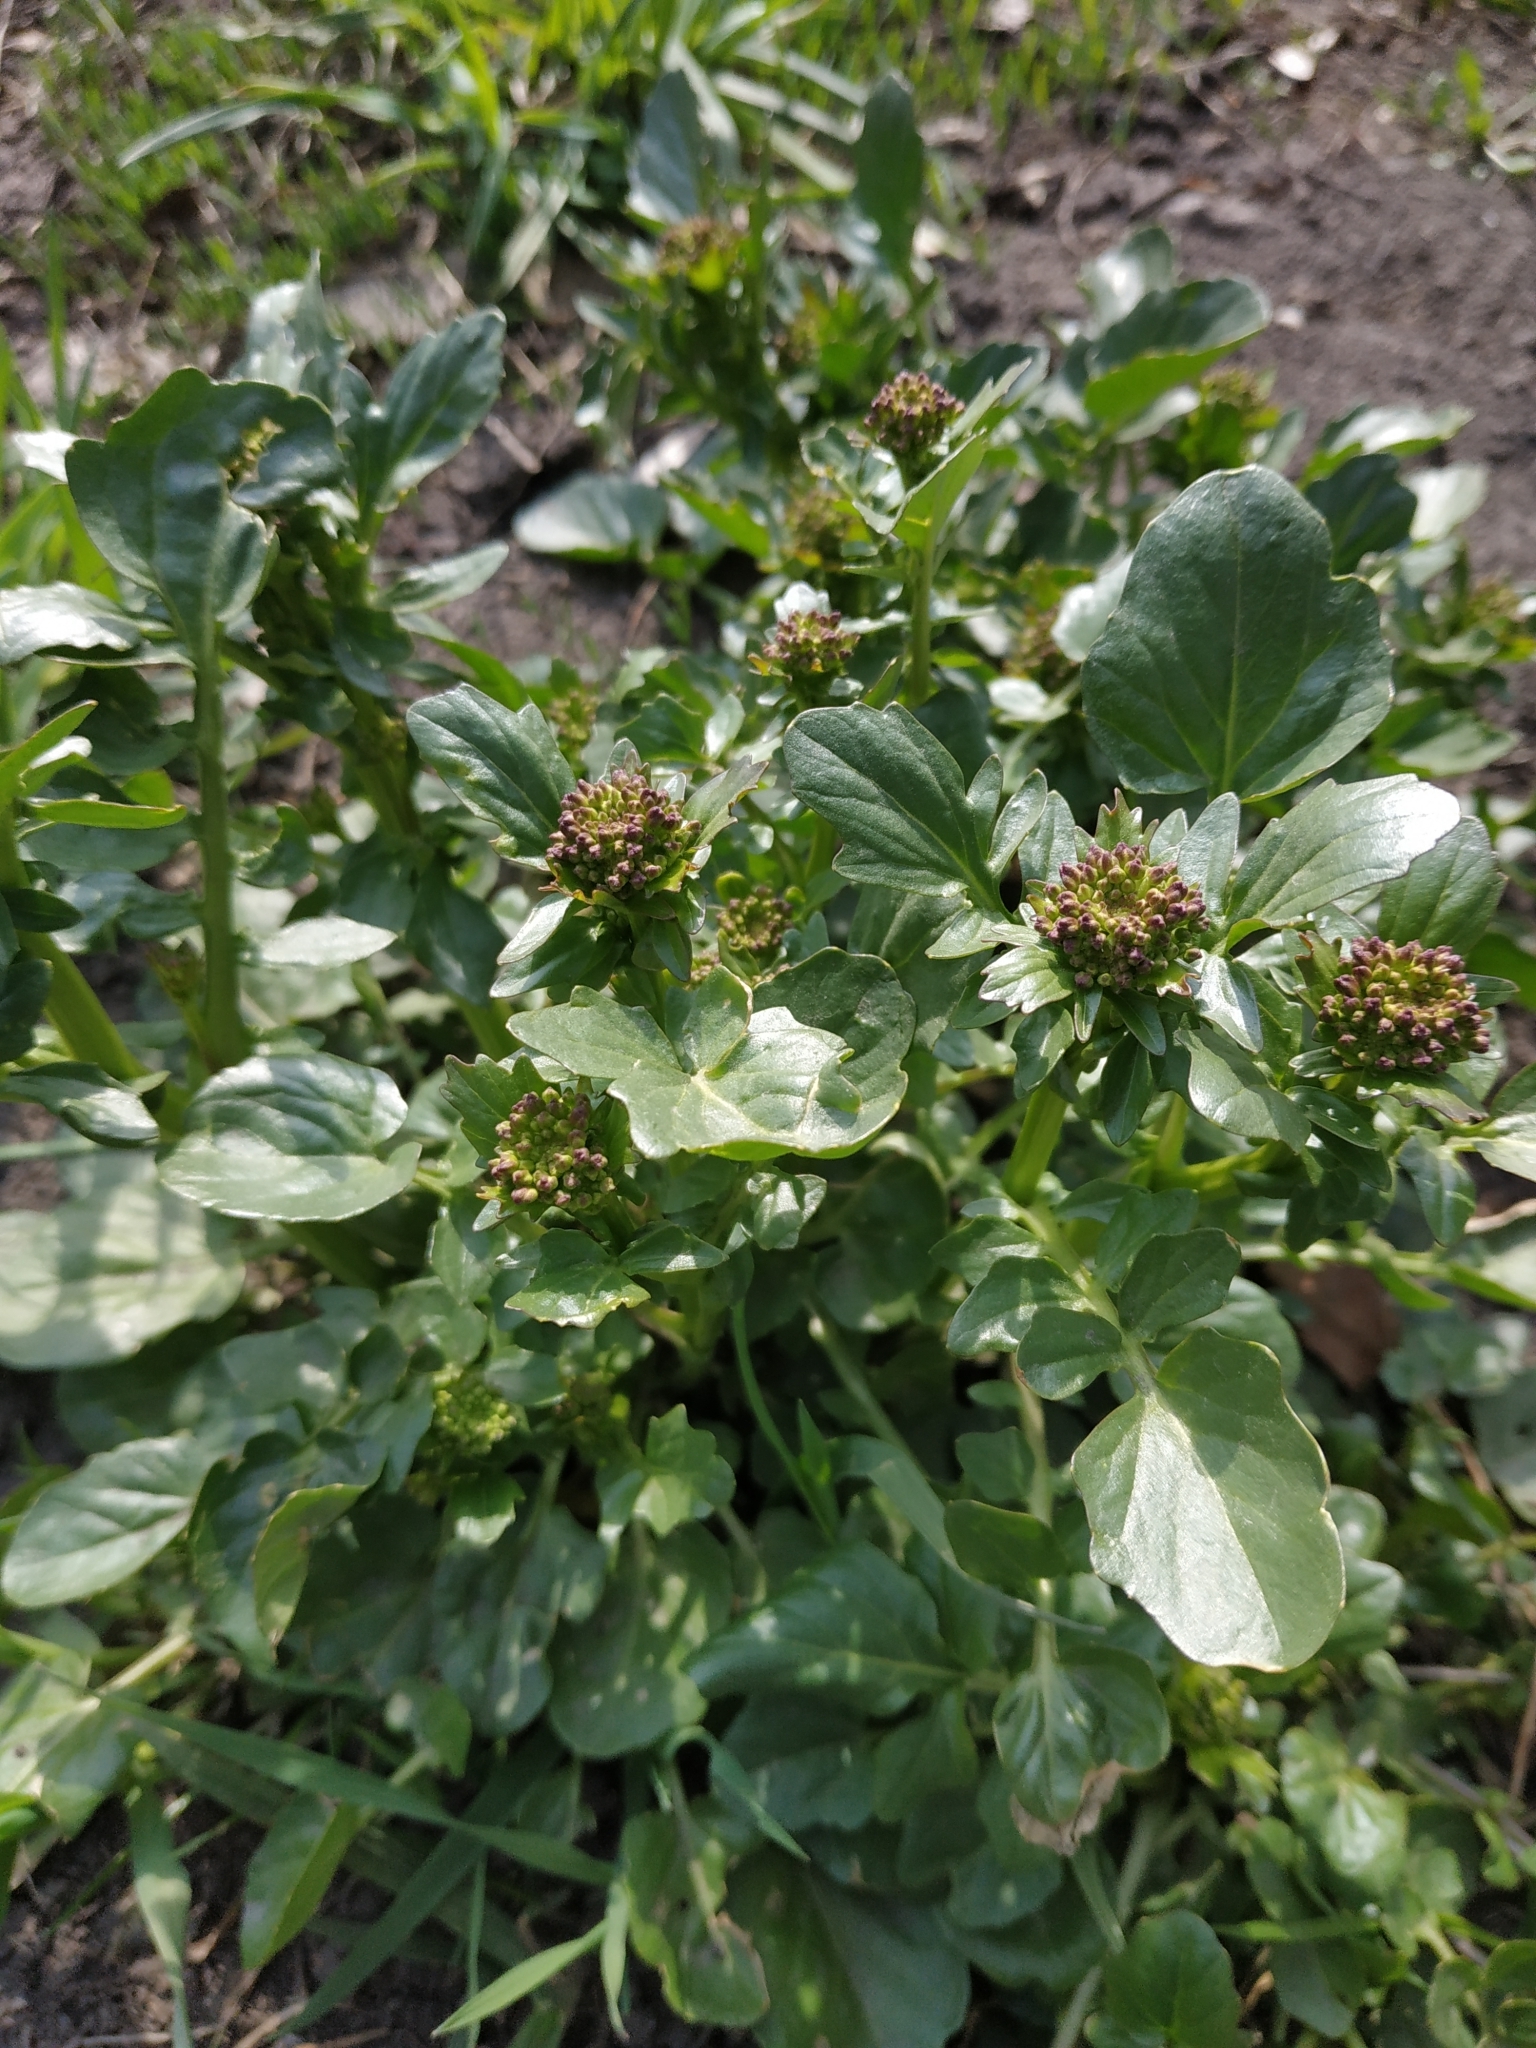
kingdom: Plantae
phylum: Tracheophyta
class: Magnoliopsida
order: Brassicales
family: Brassicaceae
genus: Barbarea
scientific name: Barbarea vulgaris
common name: Cressy-greens
